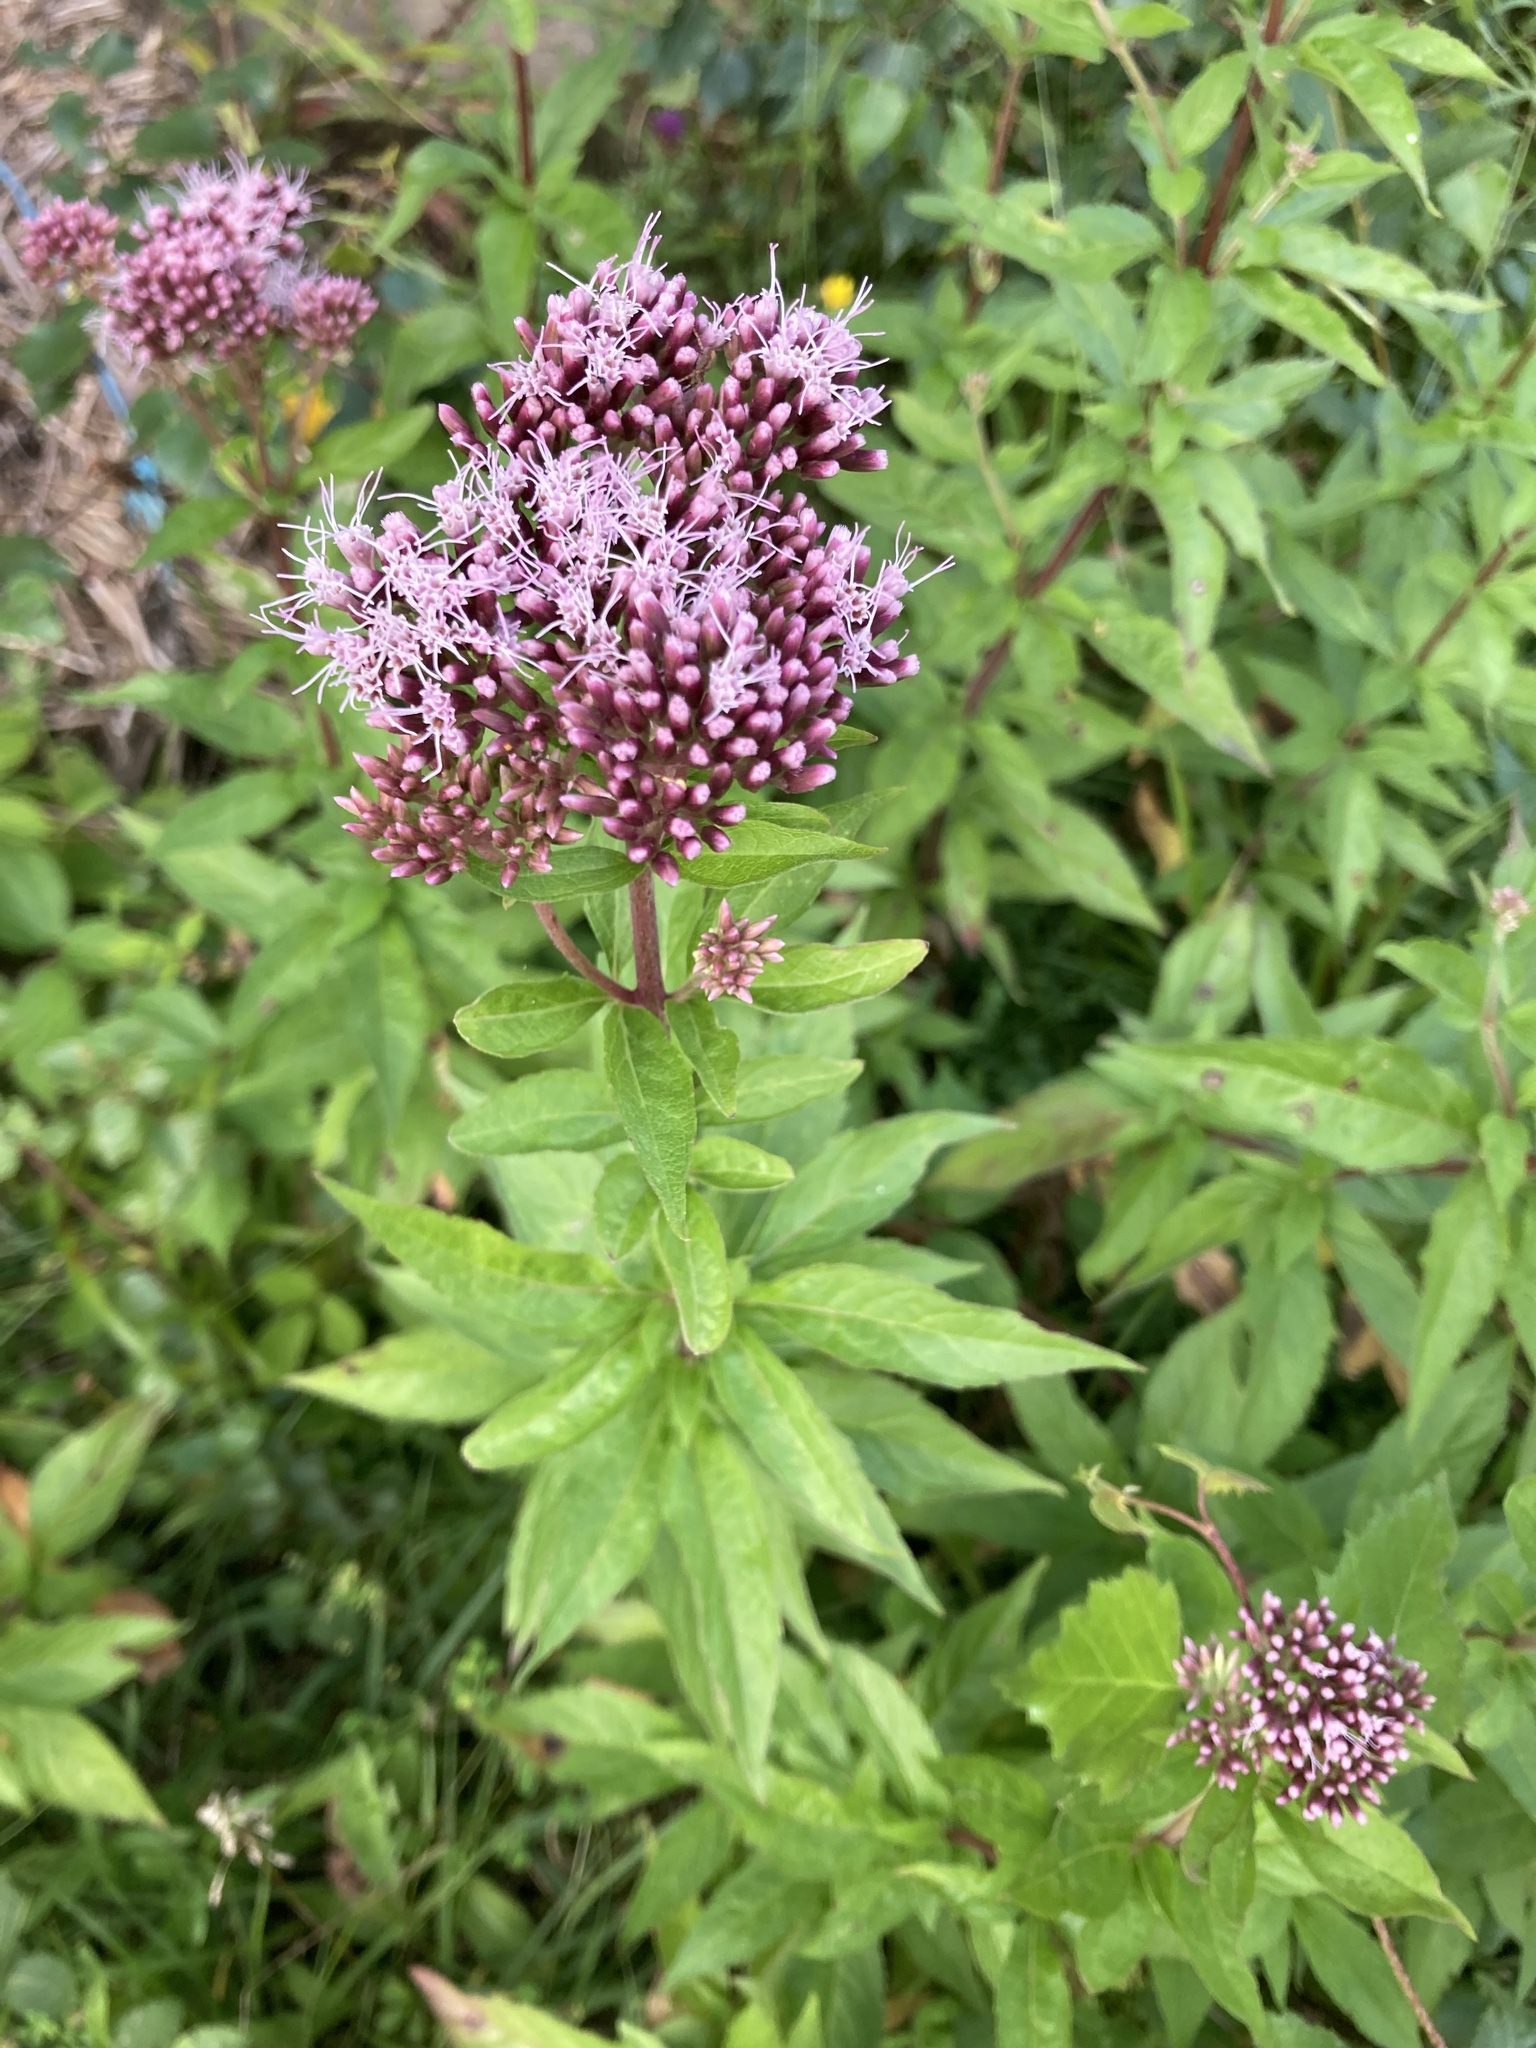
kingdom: Plantae
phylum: Tracheophyta
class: Magnoliopsida
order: Asterales
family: Asteraceae
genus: Eupatorium
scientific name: Eupatorium cannabinum
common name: Hemp-agrimony
